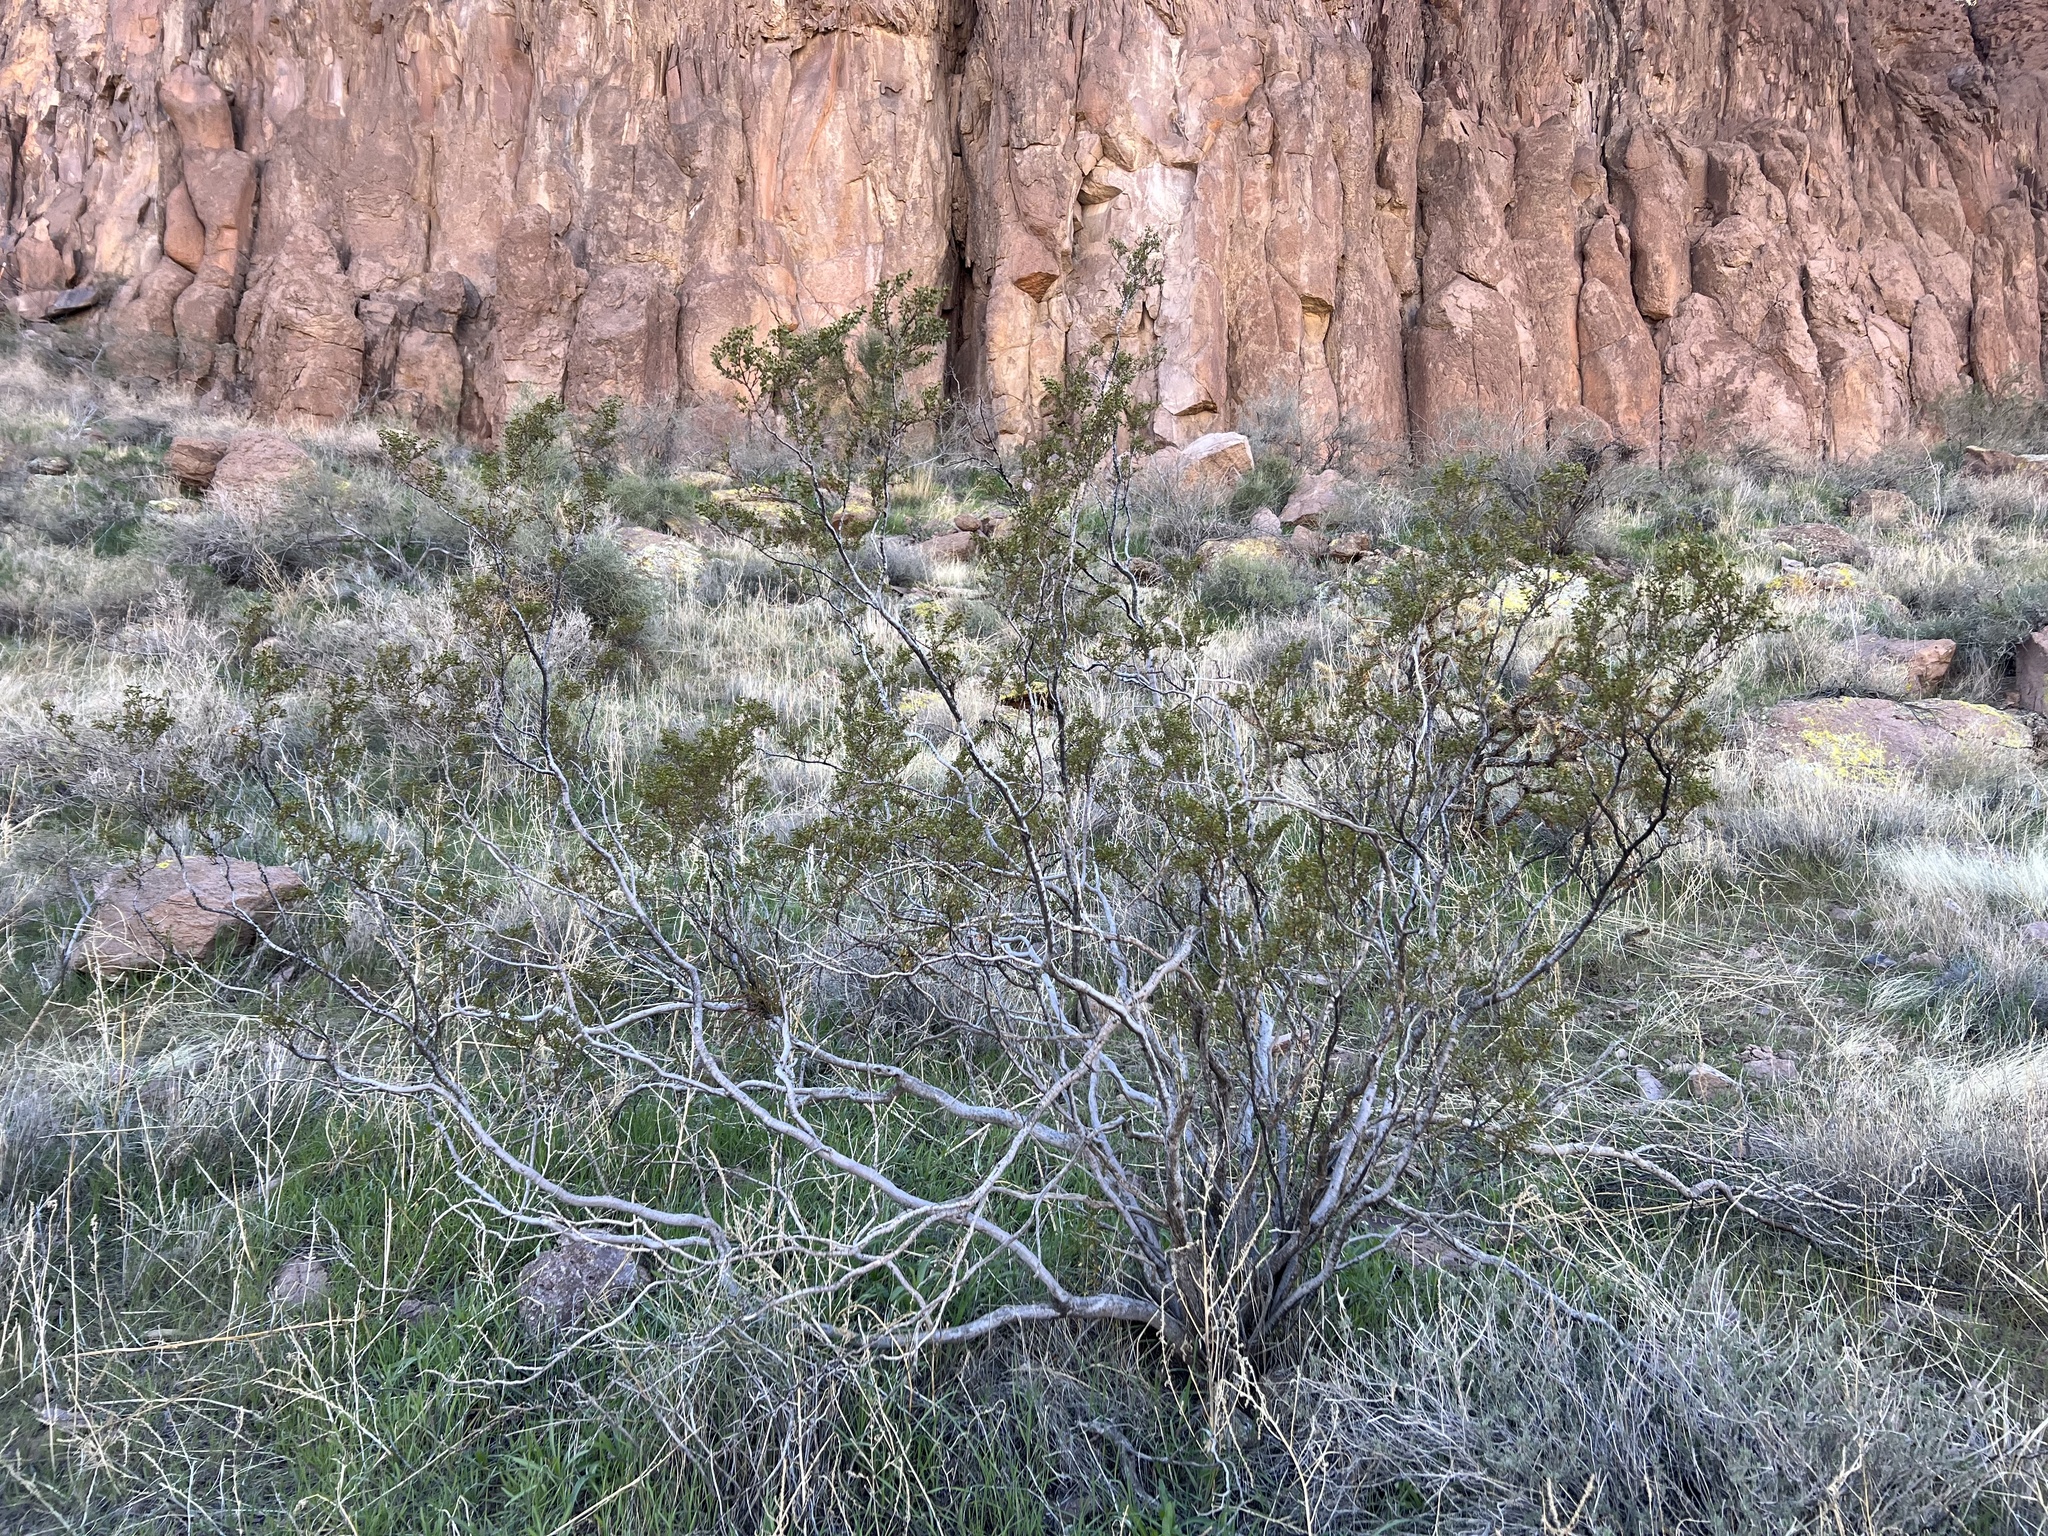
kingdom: Plantae
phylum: Tracheophyta
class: Magnoliopsida
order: Zygophyllales
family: Zygophyllaceae
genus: Larrea
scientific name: Larrea tridentata
